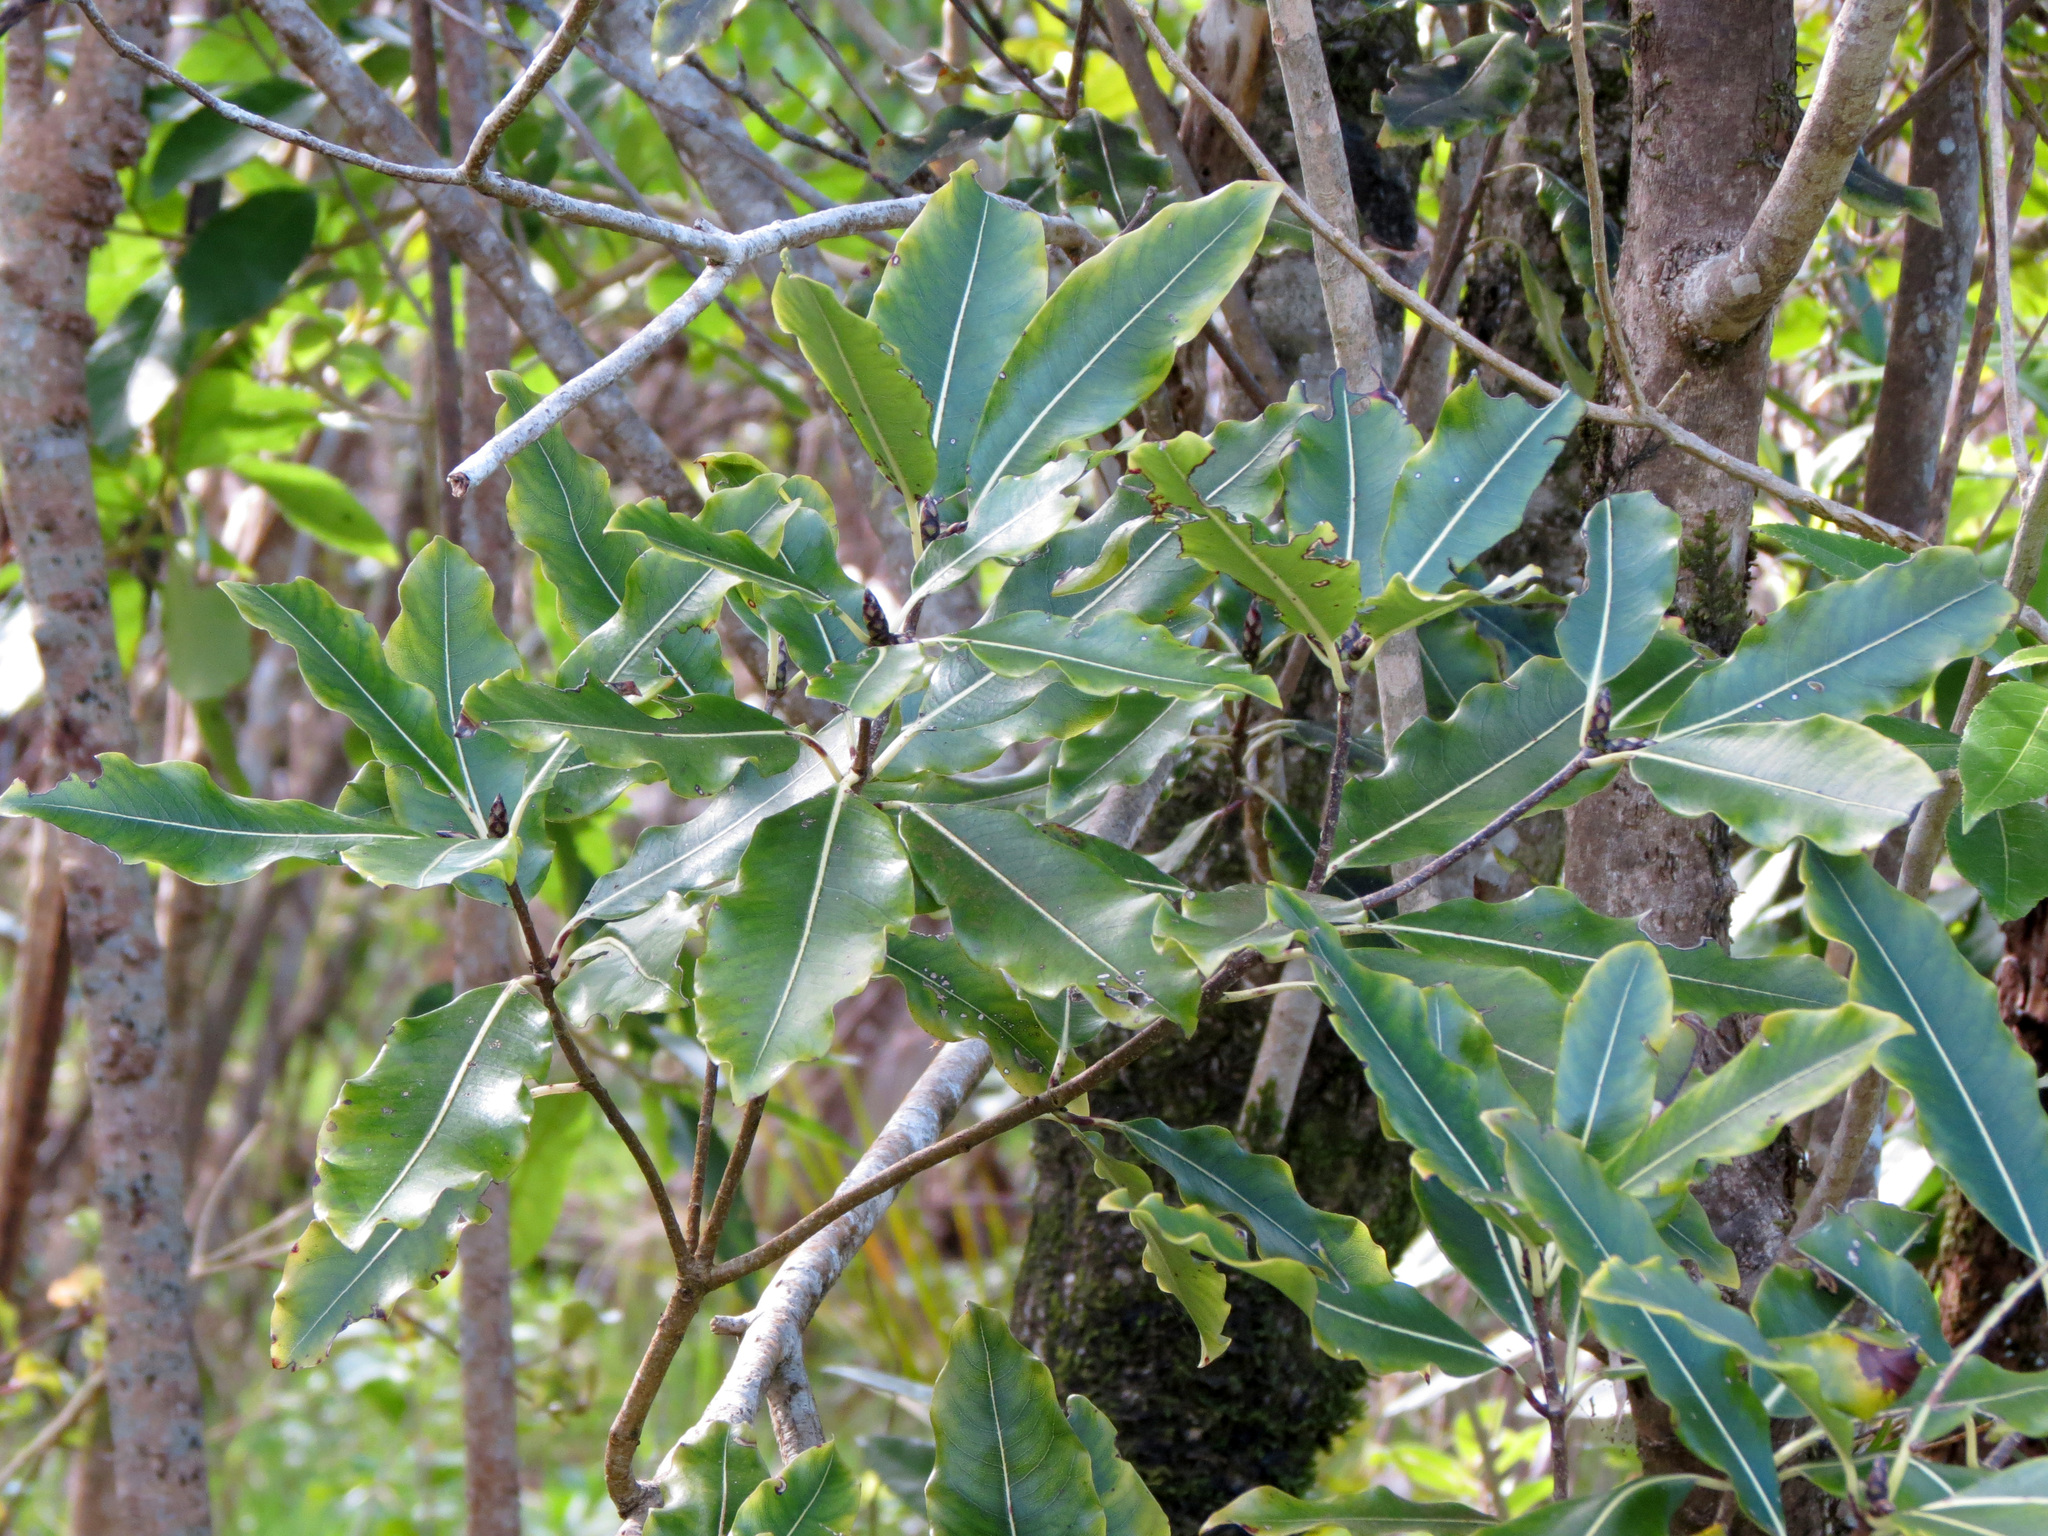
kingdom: Plantae
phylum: Tracheophyta
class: Magnoliopsida
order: Apiales
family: Pittosporaceae
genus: Pittosporum
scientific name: Pittosporum eugenioides
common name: Lemonwood
